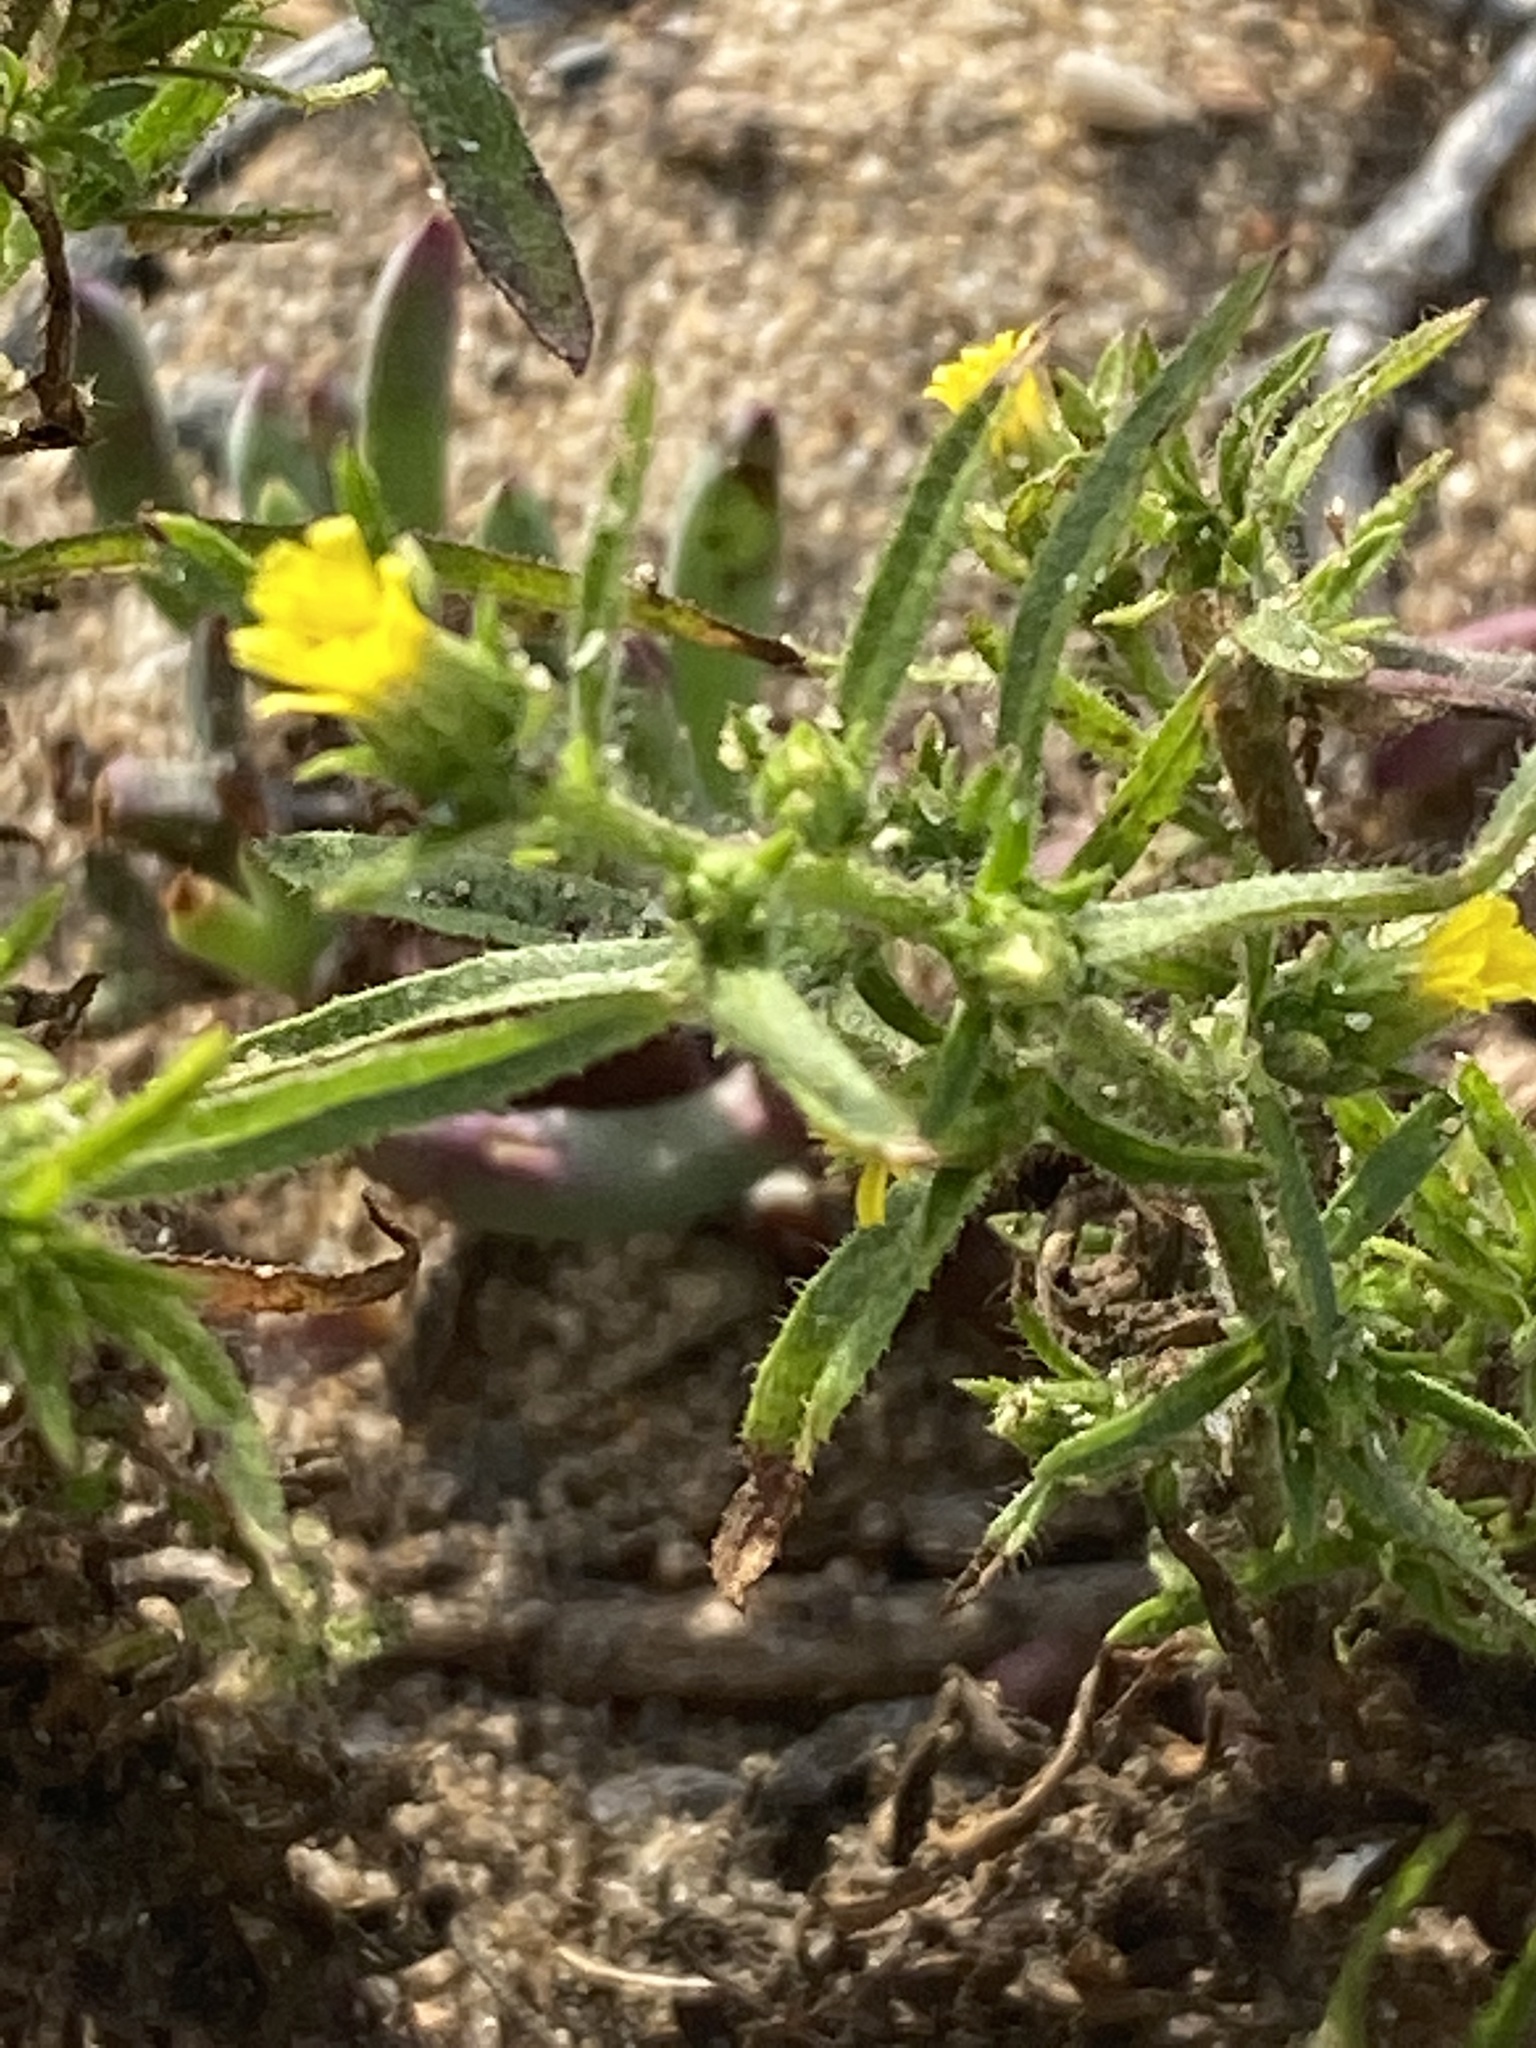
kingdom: Plantae
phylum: Tracheophyta
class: Magnoliopsida
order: Asterales
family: Asteraceae
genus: Dittrichia
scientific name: Dittrichia graveolens
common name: Stinking fleabane
